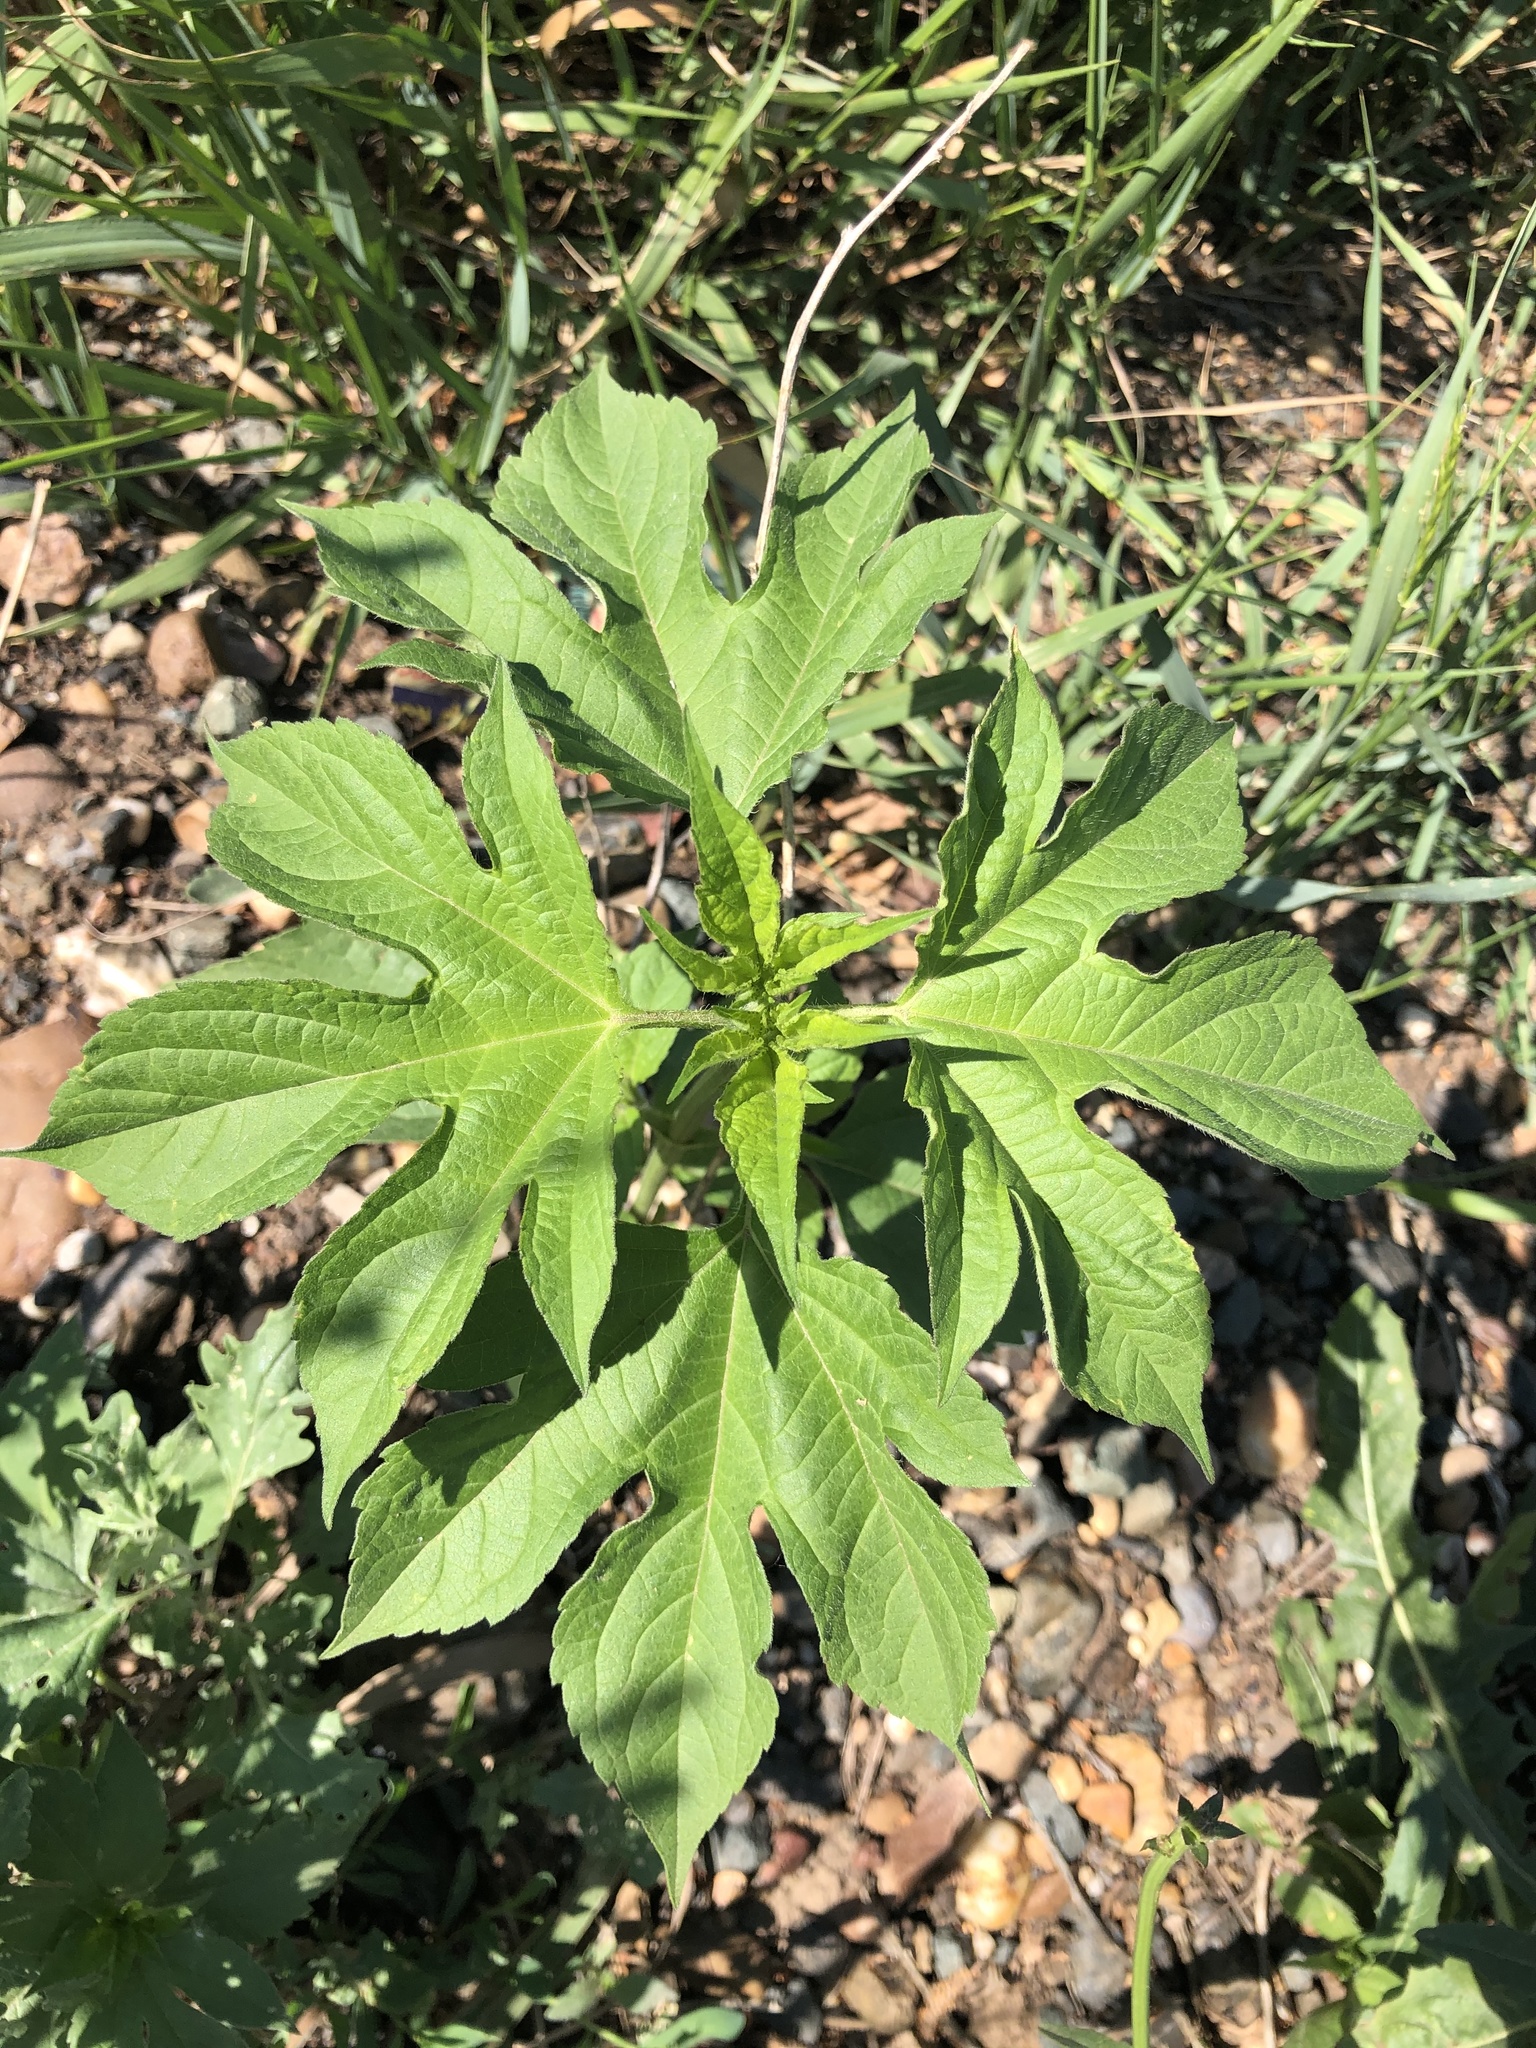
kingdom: Plantae
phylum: Tracheophyta
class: Magnoliopsida
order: Asterales
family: Asteraceae
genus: Ambrosia
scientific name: Ambrosia trifida
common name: Giant ragweed
